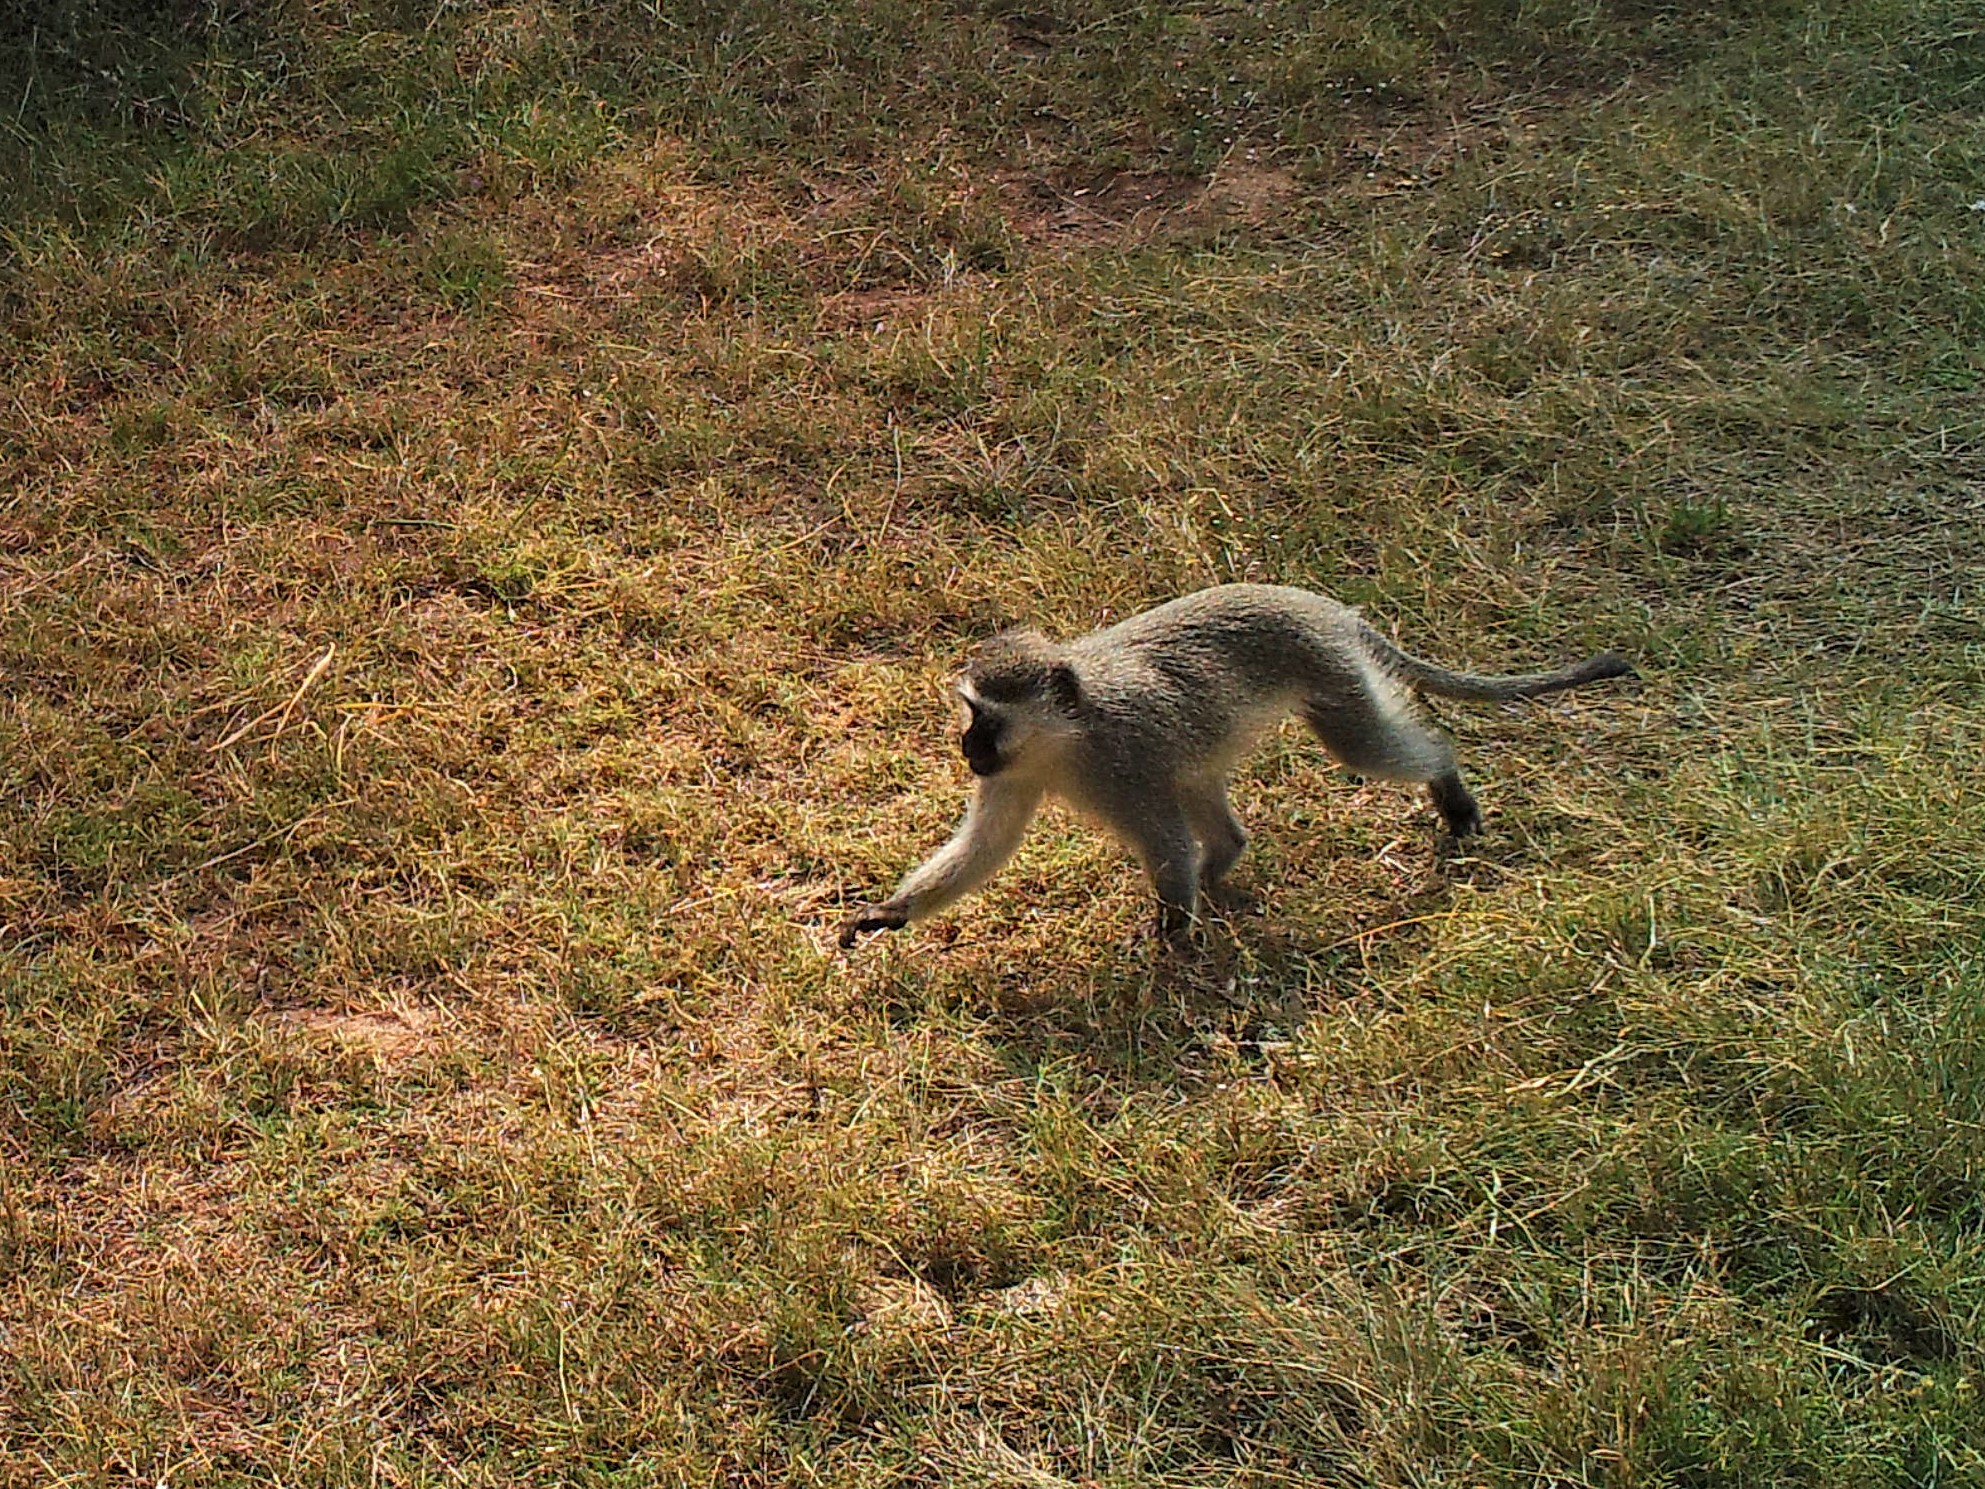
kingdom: Animalia
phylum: Chordata
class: Mammalia
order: Primates
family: Cercopithecidae
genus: Chlorocebus
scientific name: Chlorocebus pygerythrus
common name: Vervet monkey
